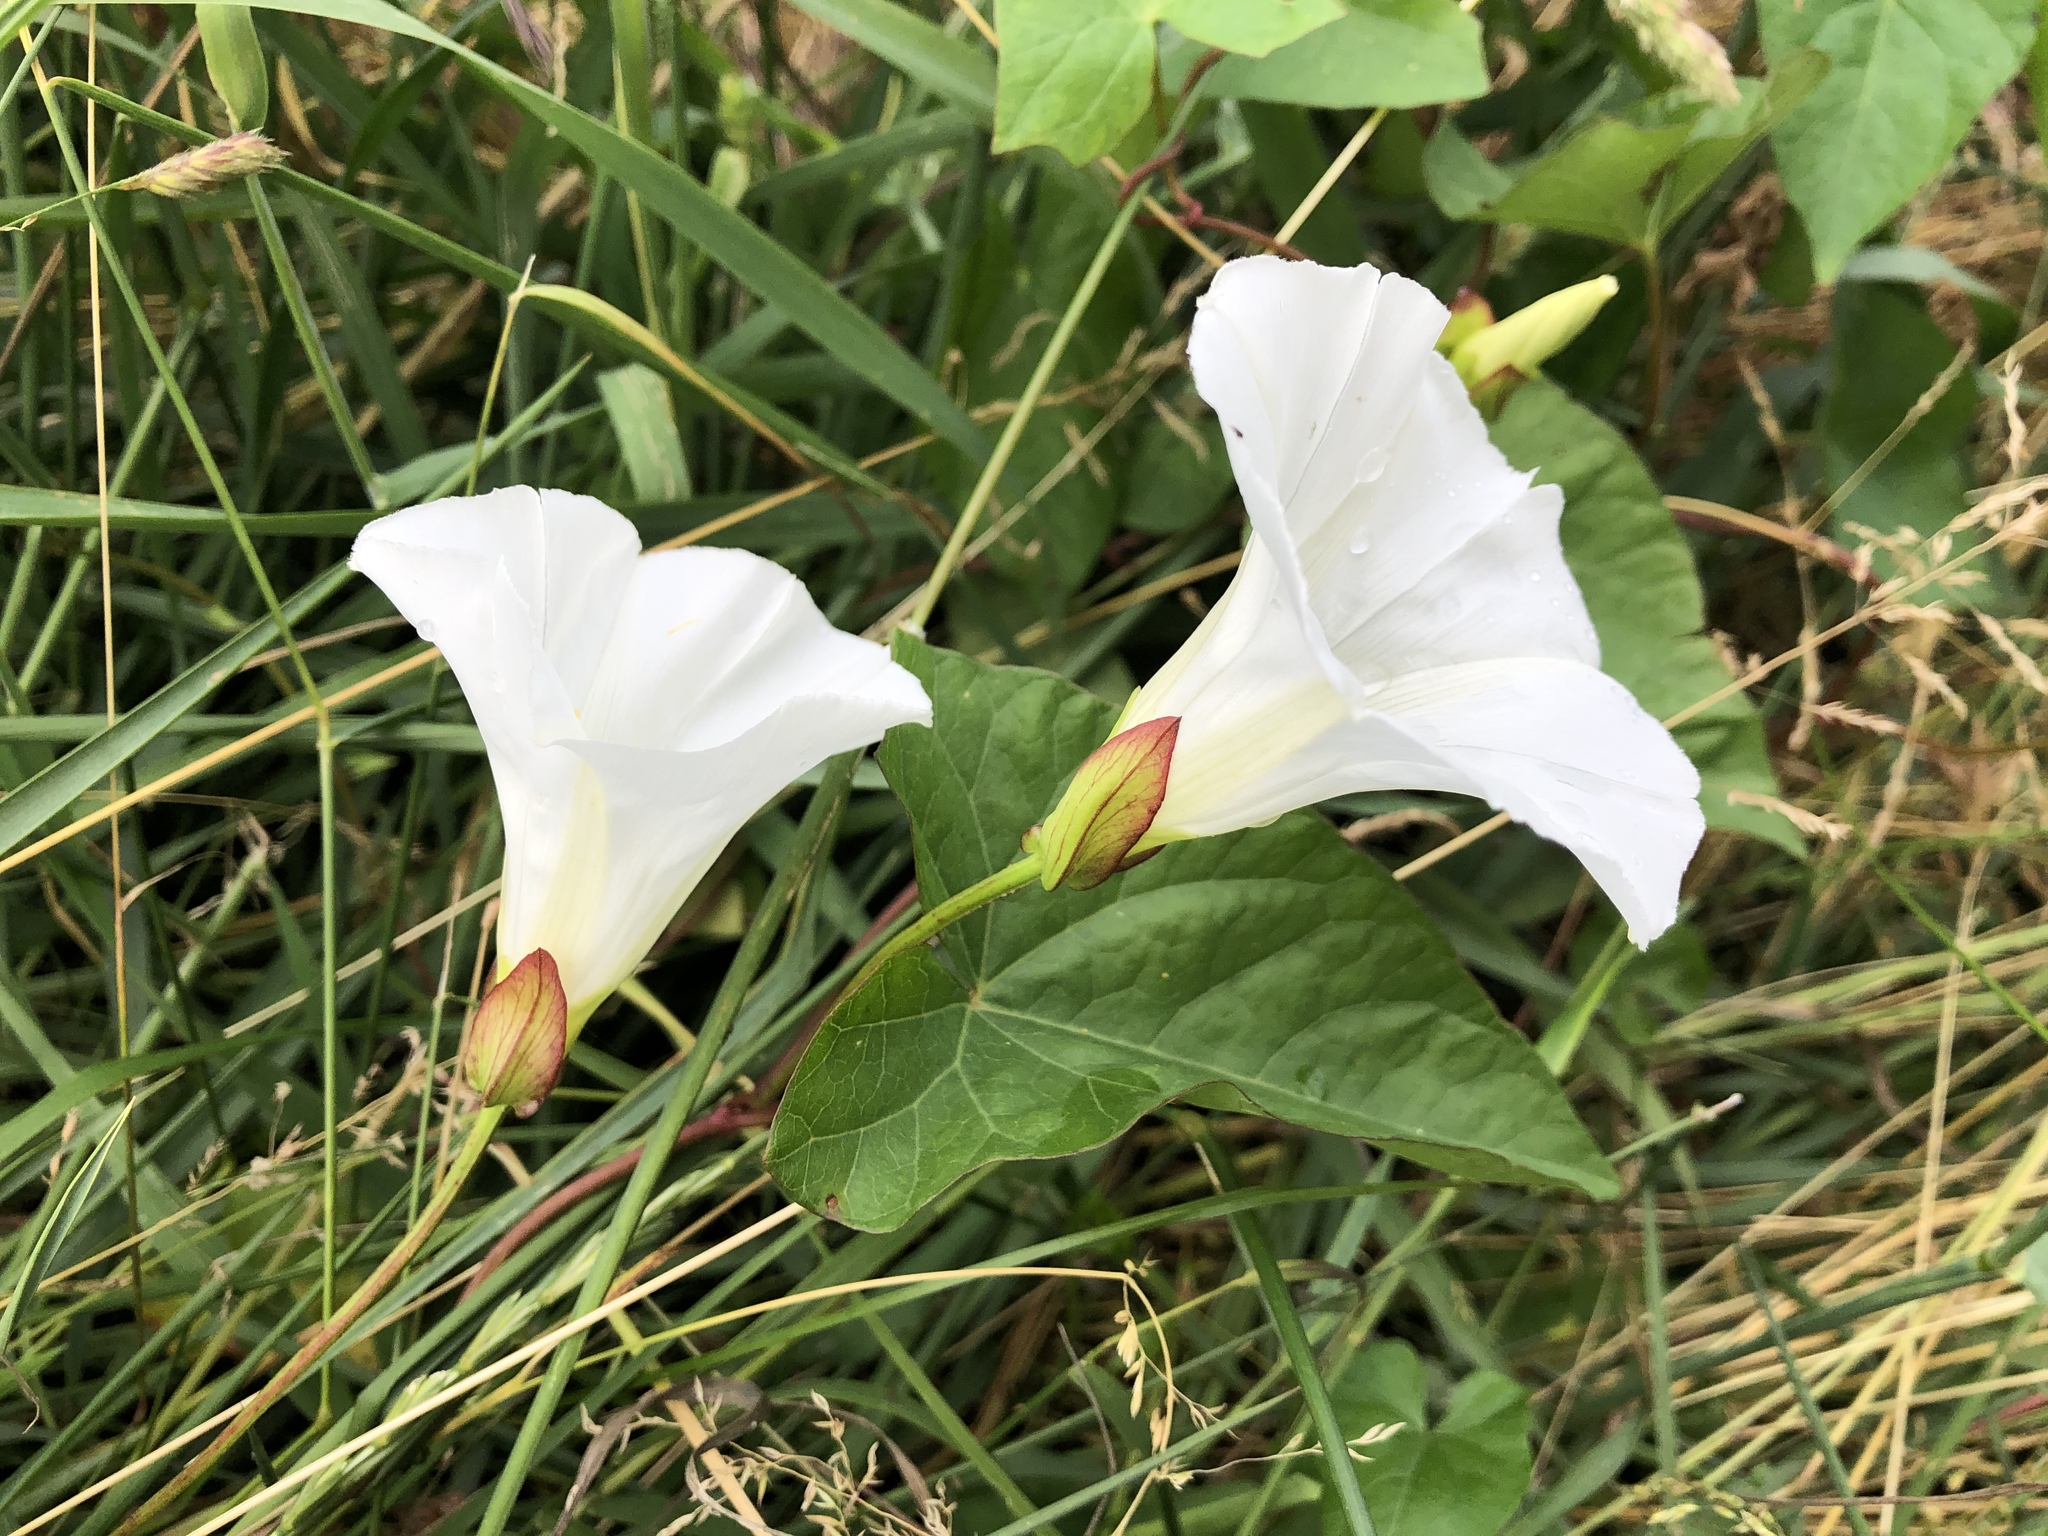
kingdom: Plantae
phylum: Tracheophyta
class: Magnoliopsida
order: Solanales
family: Convolvulaceae
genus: Calystegia
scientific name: Calystegia sepium
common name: Hedge bindweed
